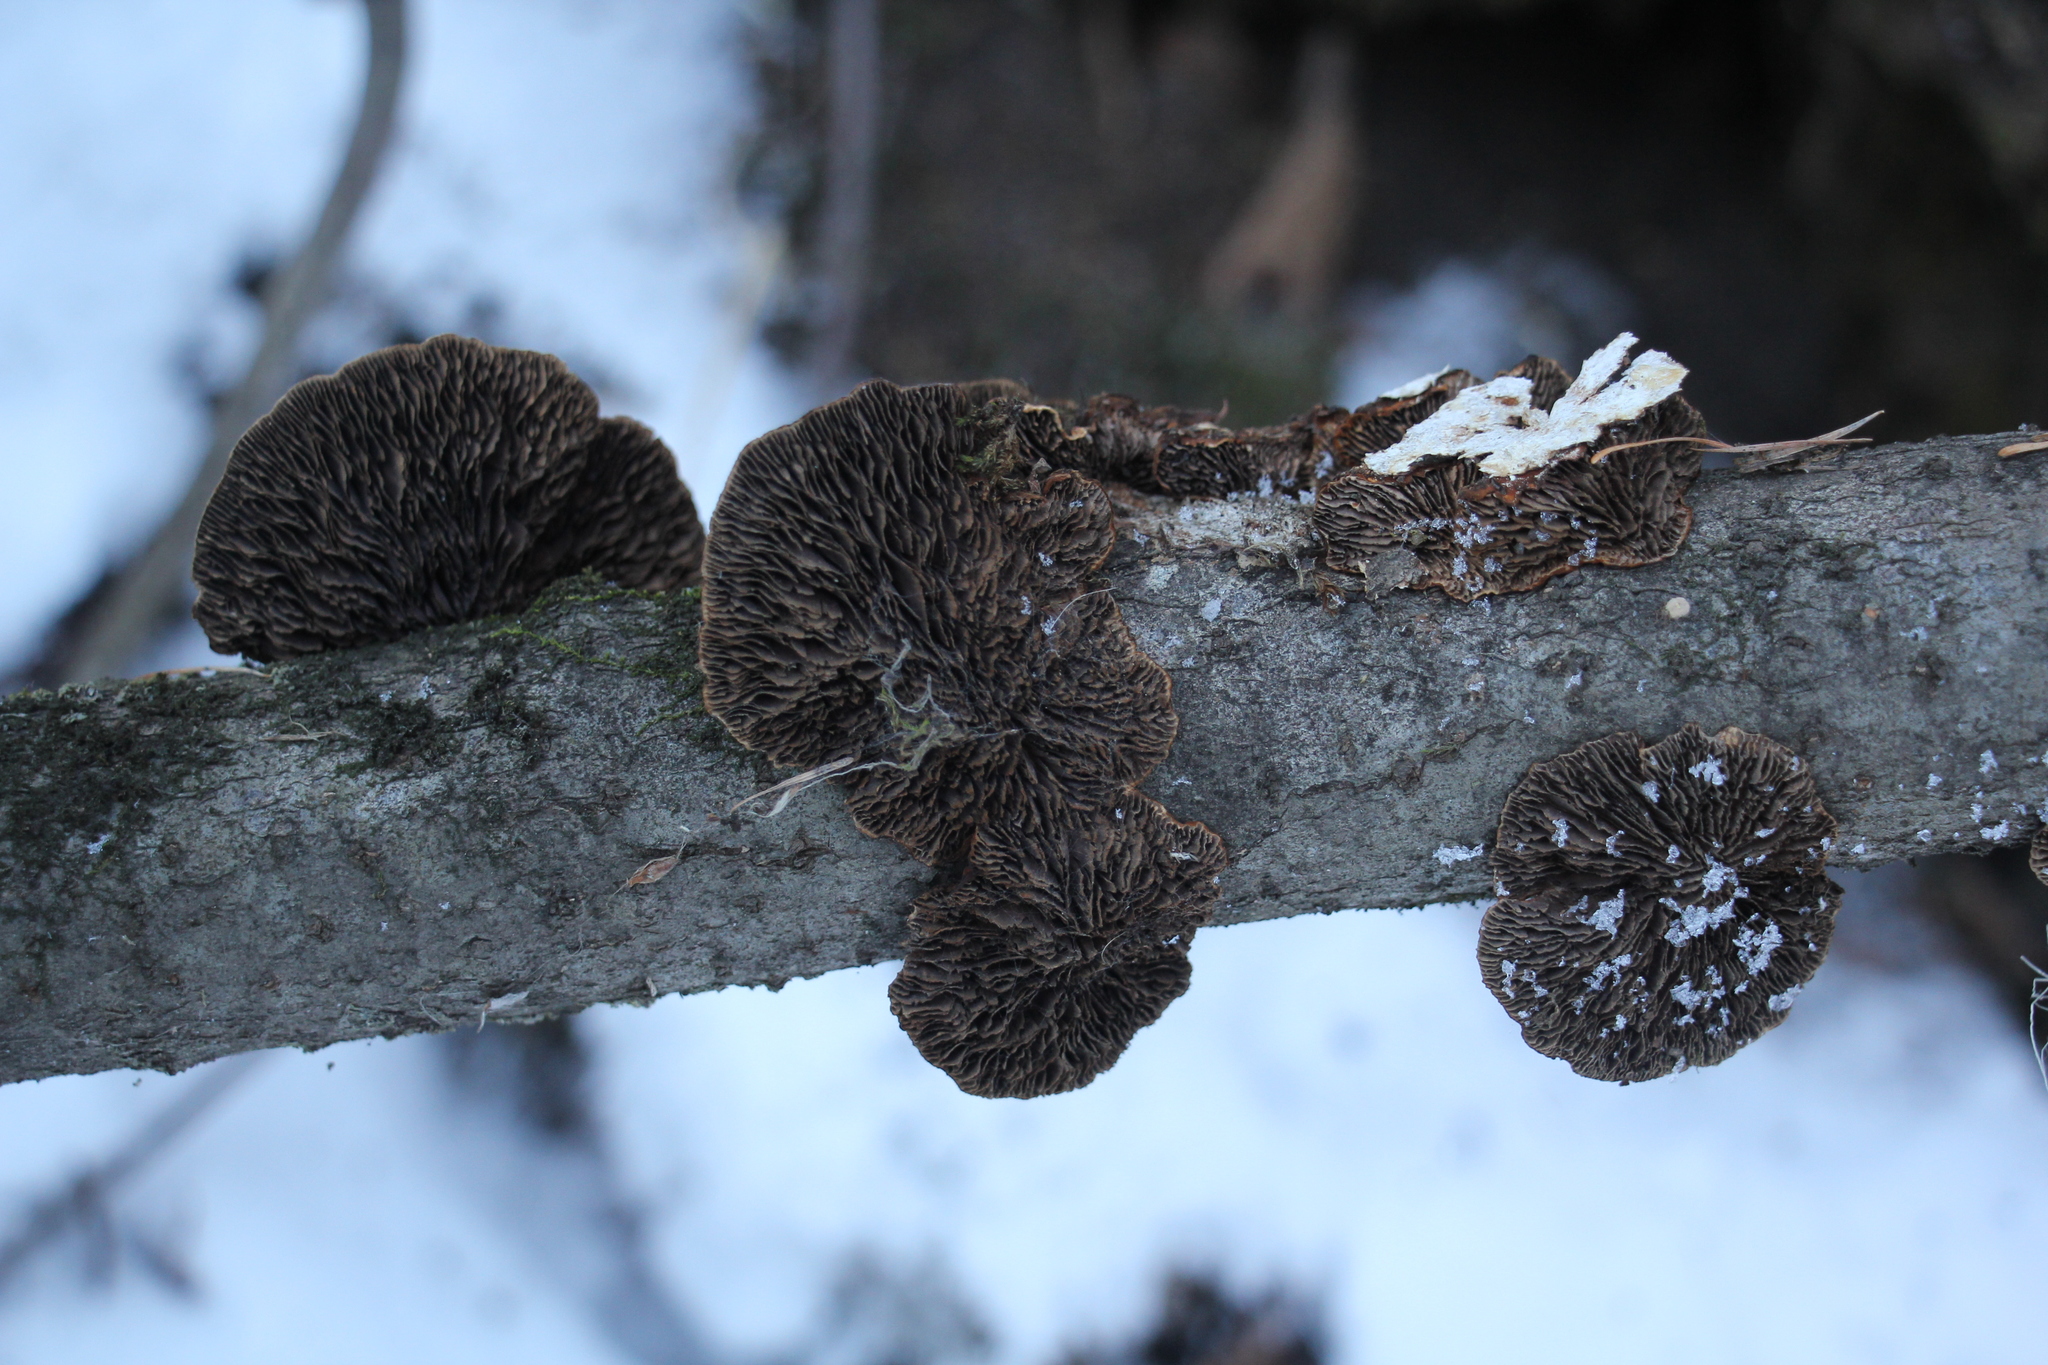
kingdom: Fungi
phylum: Basidiomycota
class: Agaricomycetes
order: Polyporales
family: Polyporaceae
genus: Daedaleopsis
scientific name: Daedaleopsis confragosa
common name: Blushing bracket
